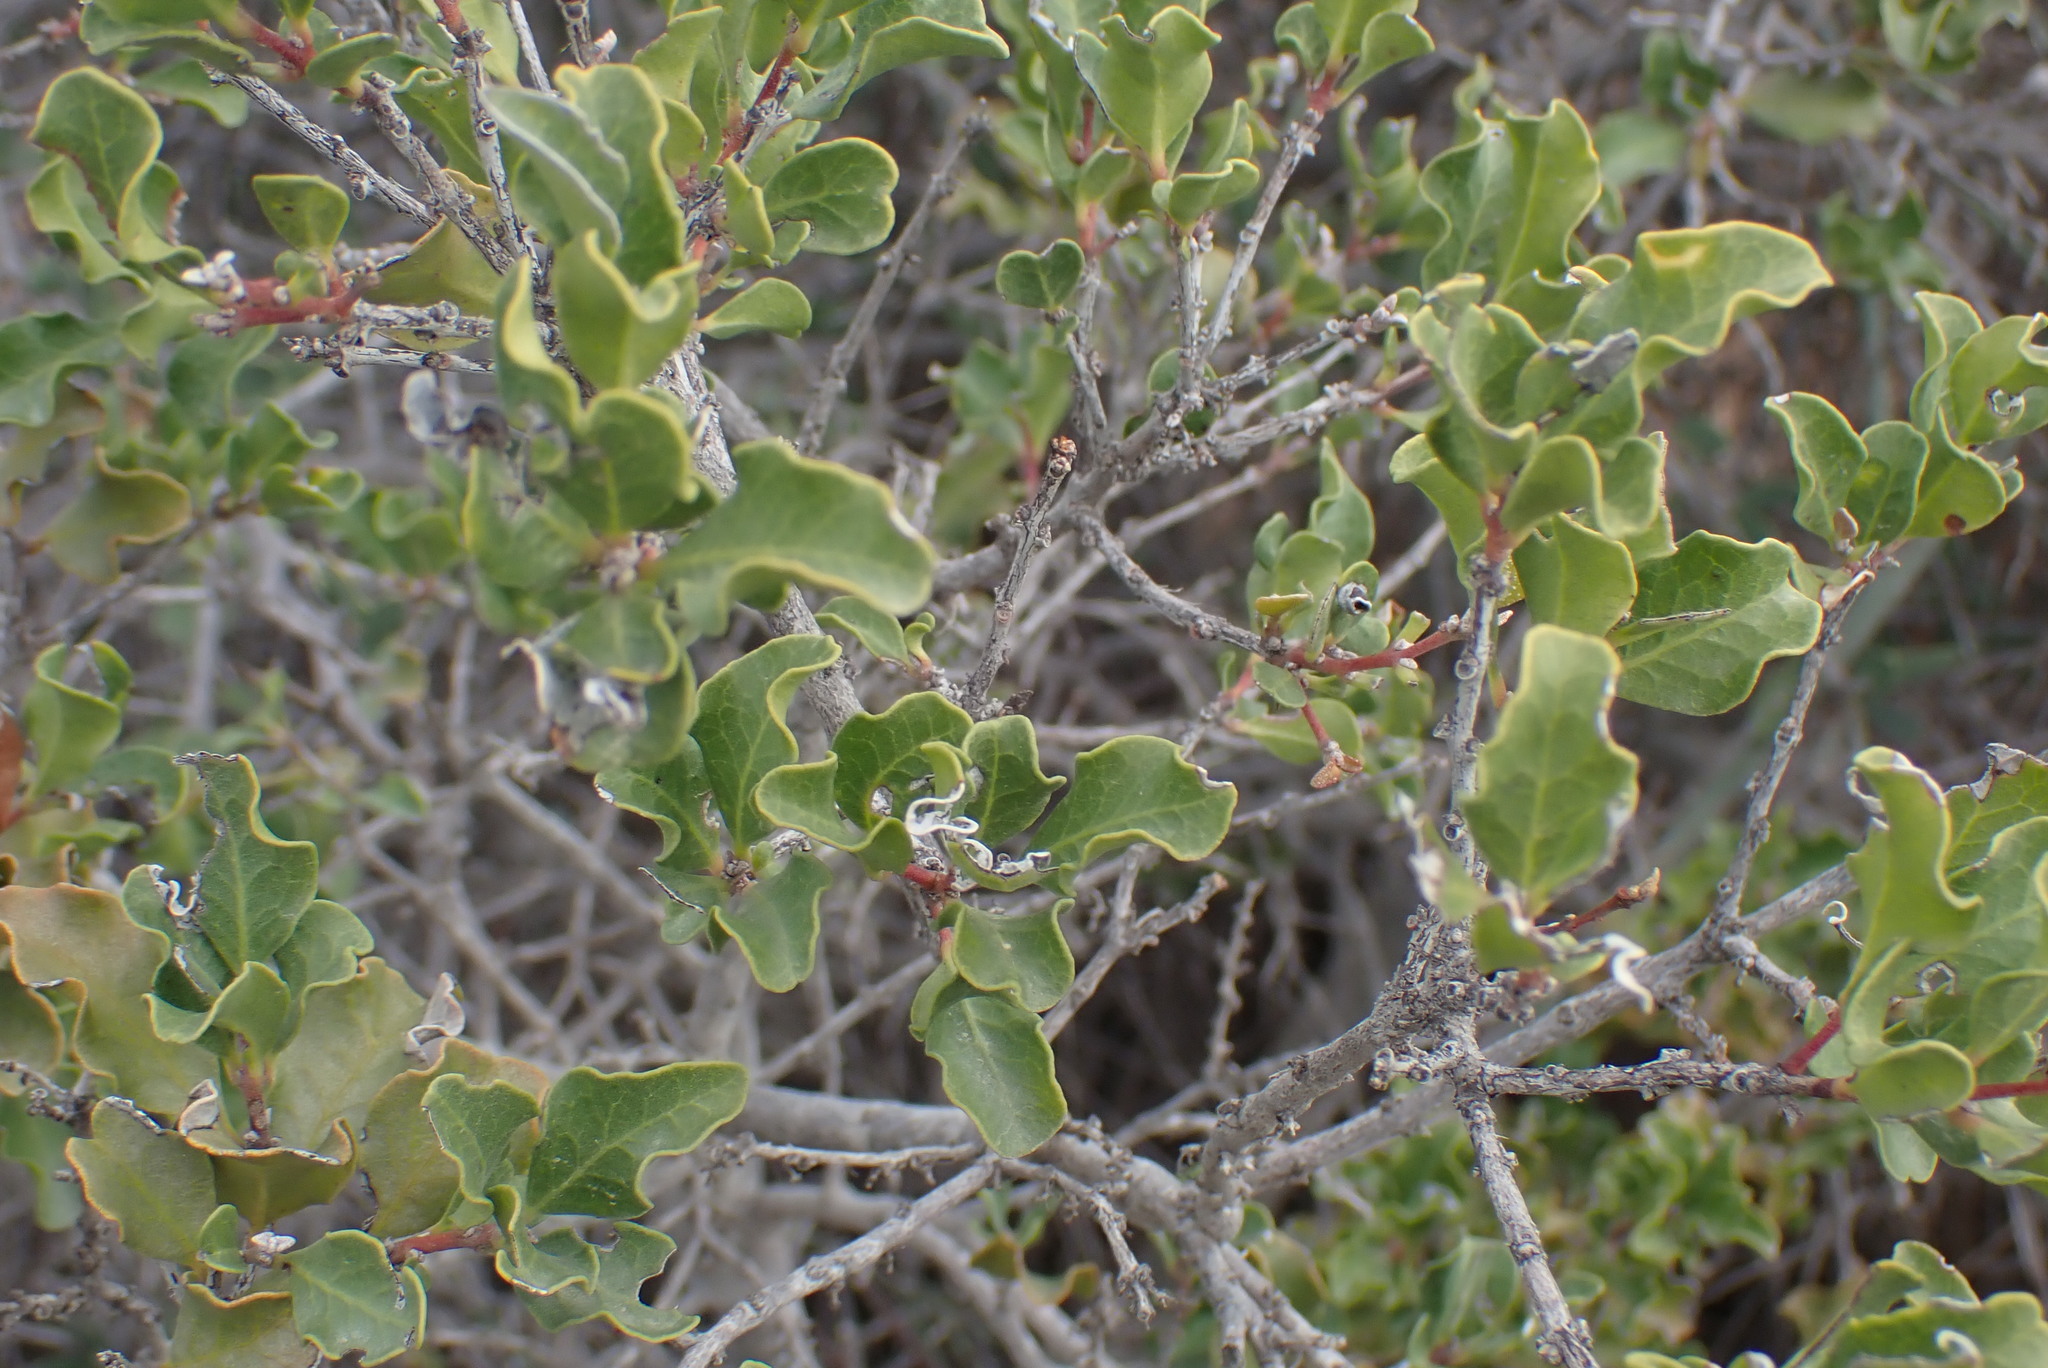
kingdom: Plantae
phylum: Tracheophyta
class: Magnoliopsida
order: Ericales
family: Ebenaceae
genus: Euclea
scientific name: Euclea undulata
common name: Small-leaved guarri
